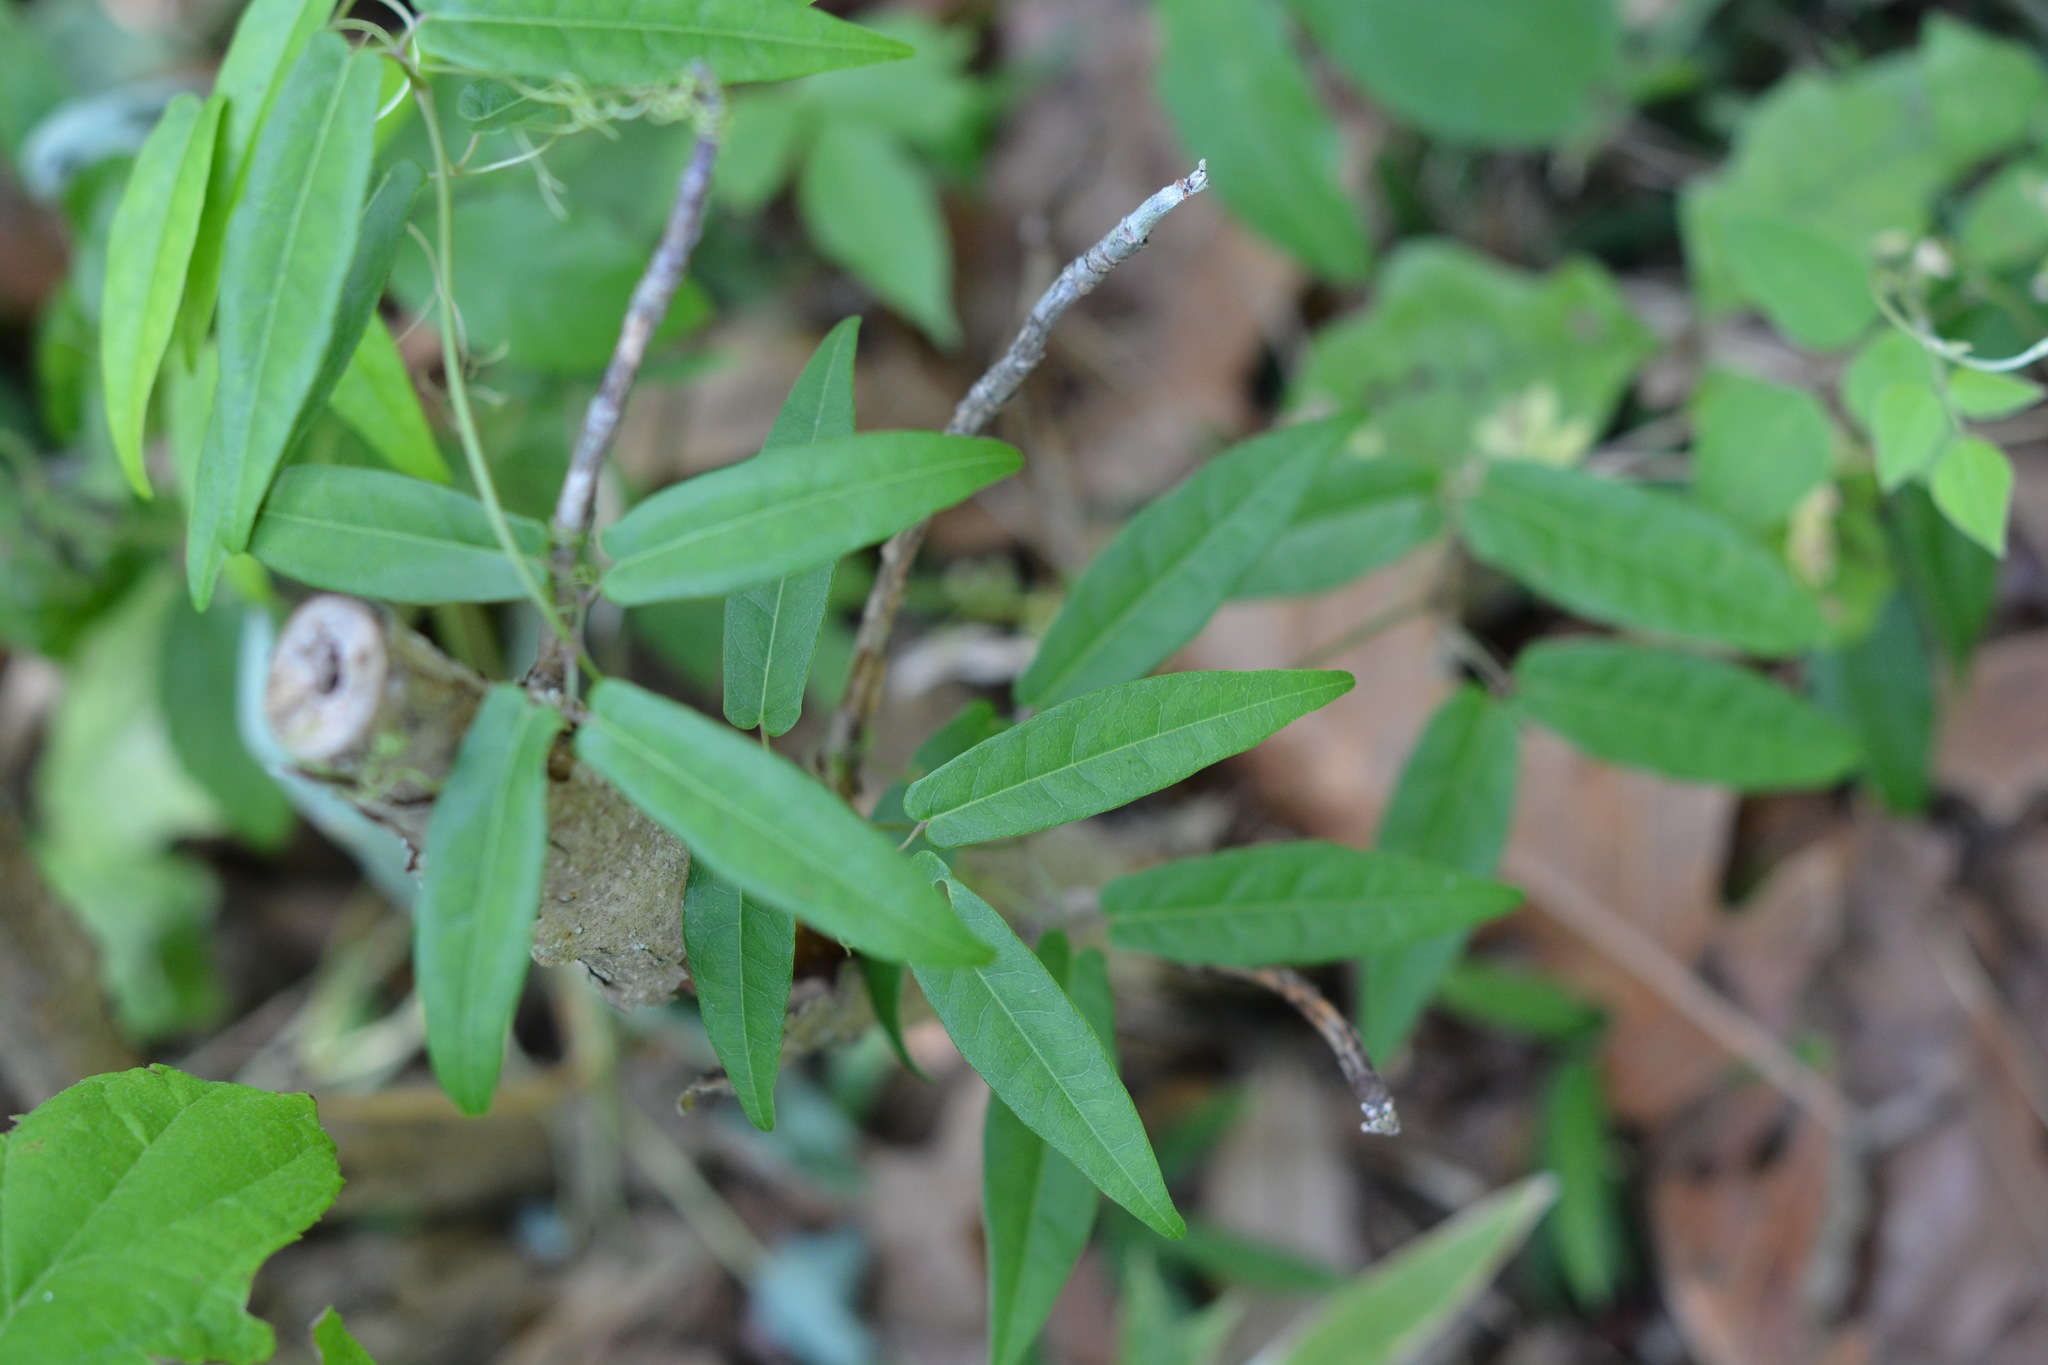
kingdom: Plantae
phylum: Tracheophyta
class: Magnoliopsida
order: Lamiales
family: Bignoniaceae
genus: Bignonia
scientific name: Bignonia capreolata
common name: Crossvine
